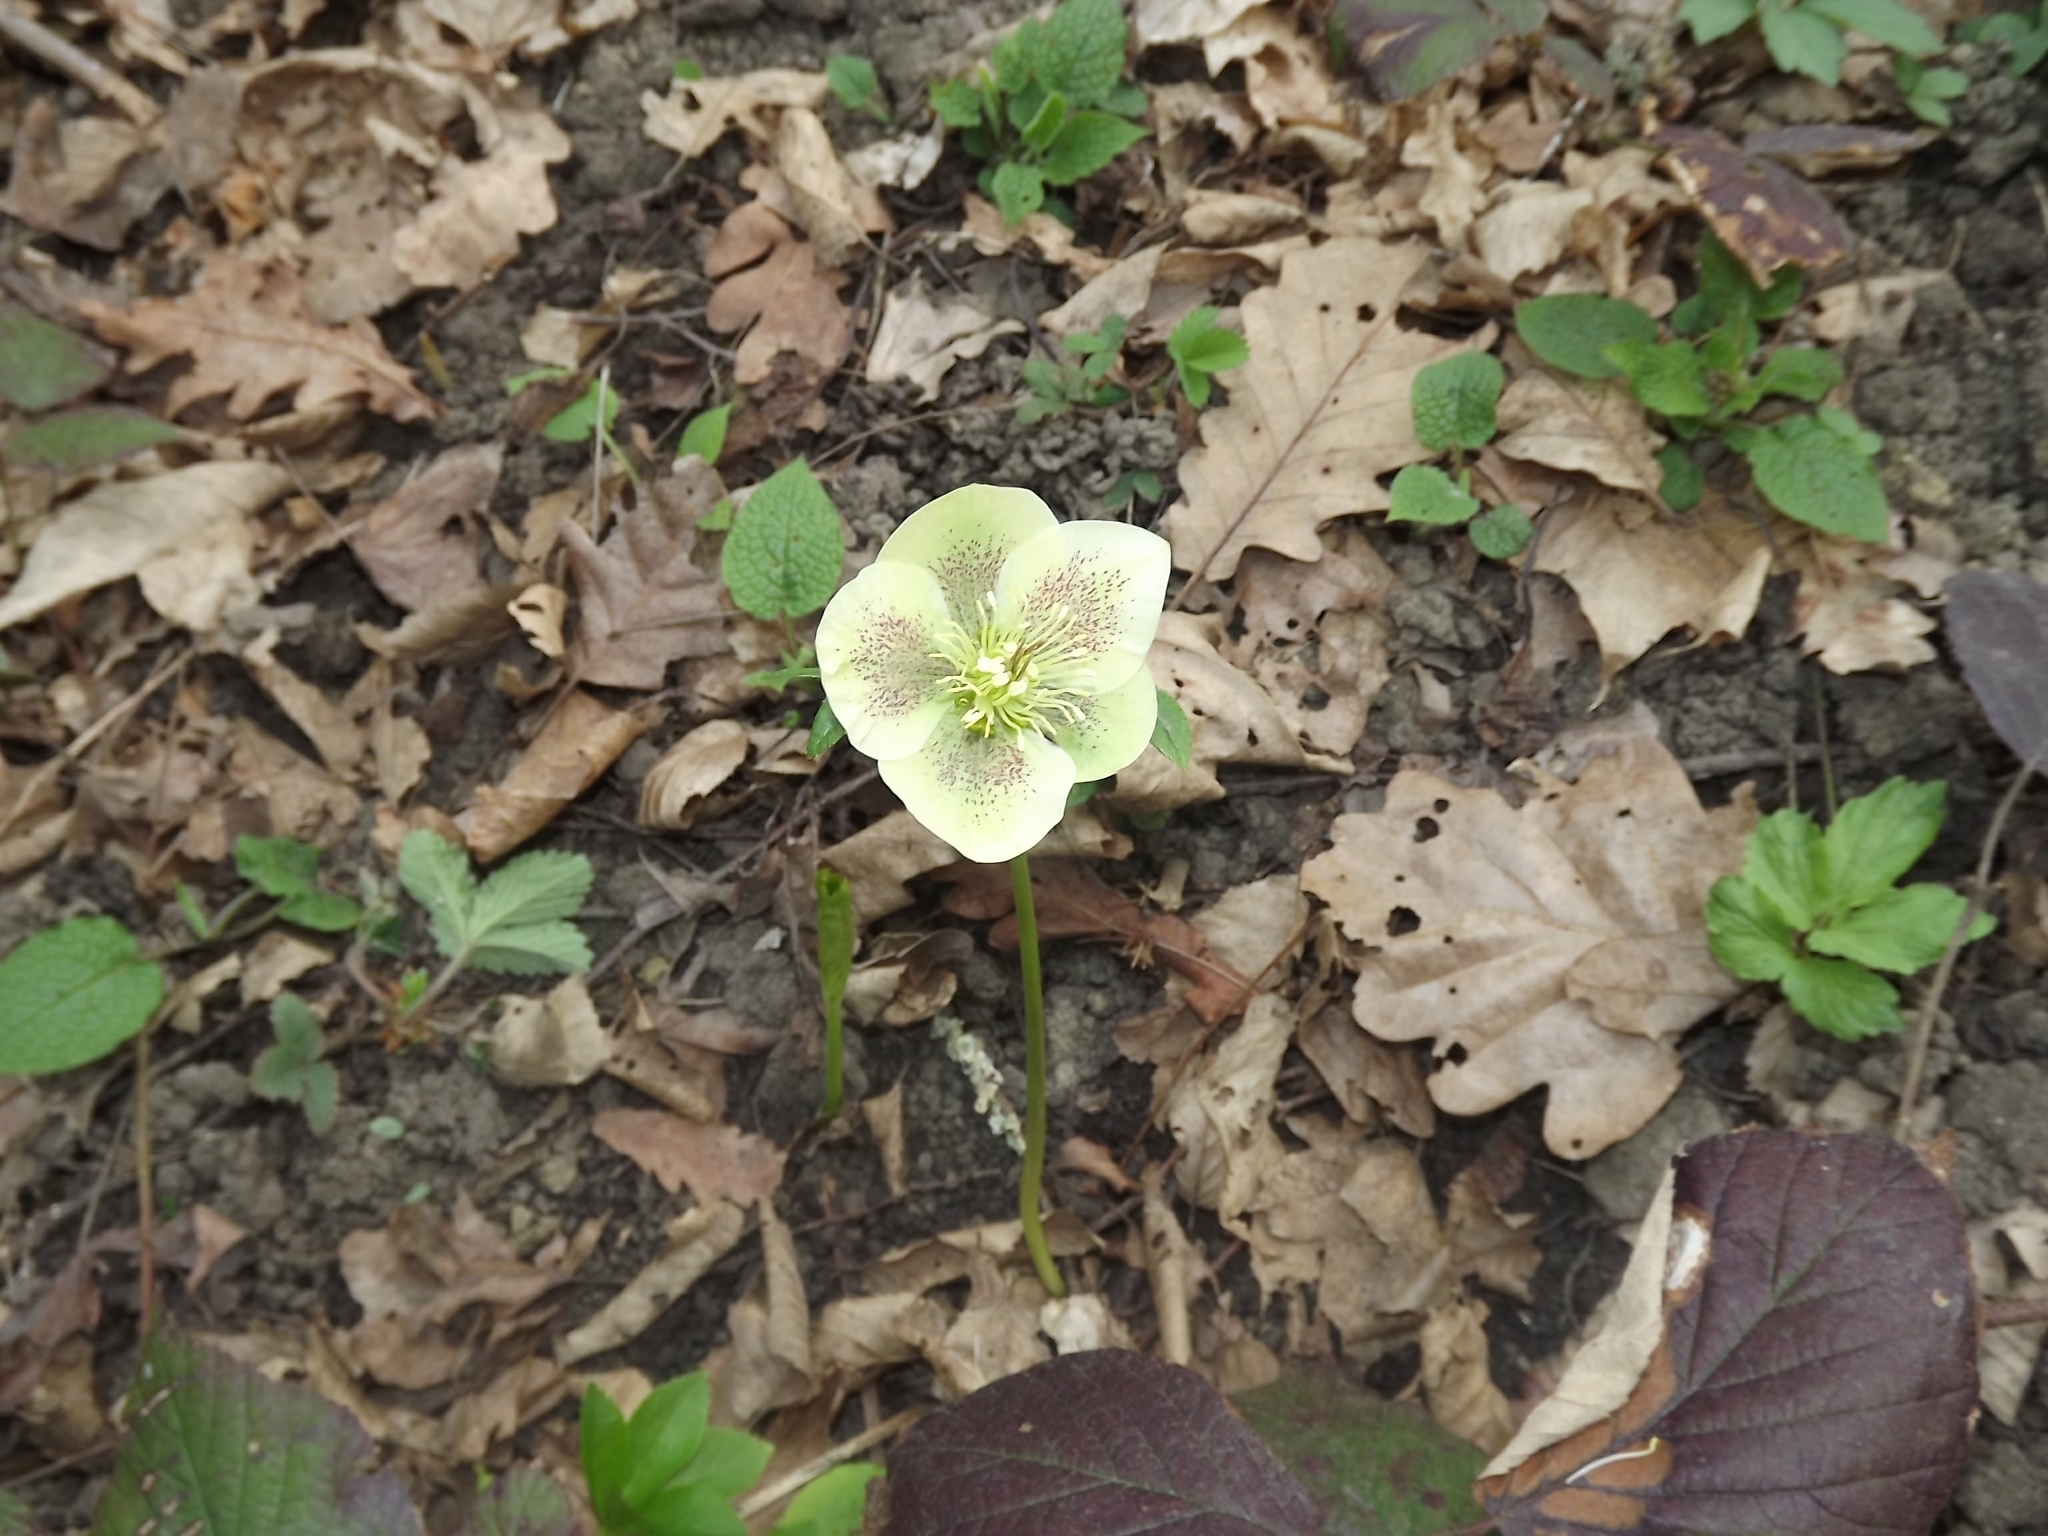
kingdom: Plantae
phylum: Tracheophyta
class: Magnoliopsida
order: Ranunculales
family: Ranunculaceae
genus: Helleborus
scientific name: Helleborus orientalis
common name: Lenten-rose
